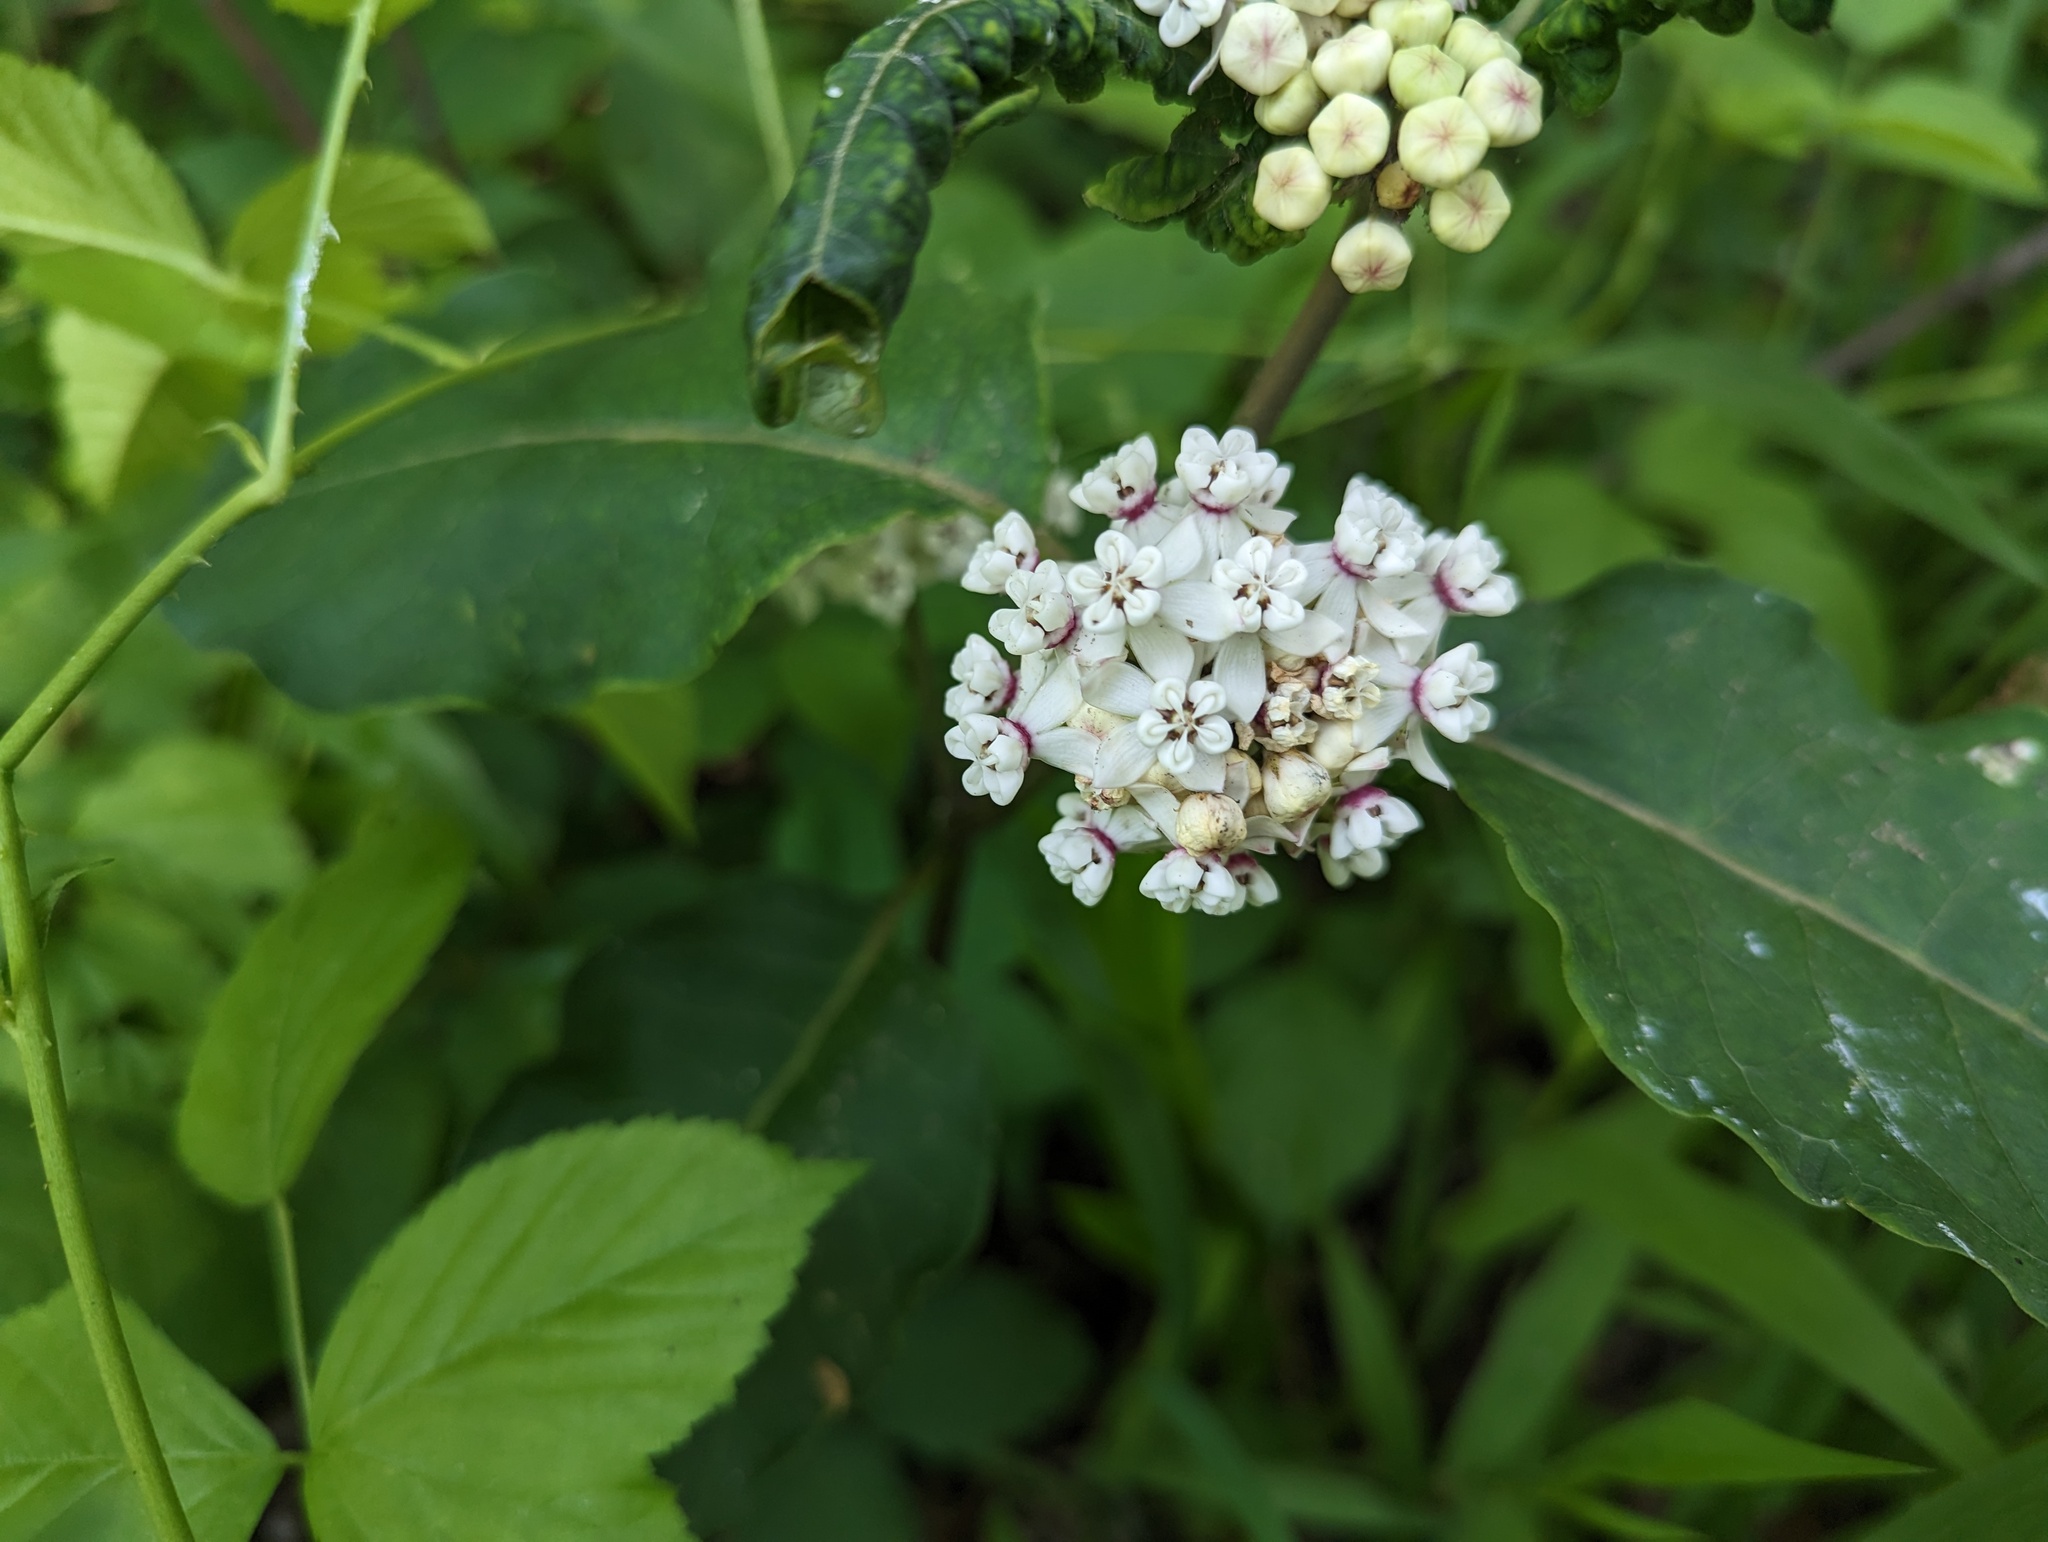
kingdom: Plantae
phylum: Tracheophyta
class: Magnoliopsida
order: Gentianales
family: Apocynaceae
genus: Asclepias
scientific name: Asclepias variegata
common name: Variegated milkweed
